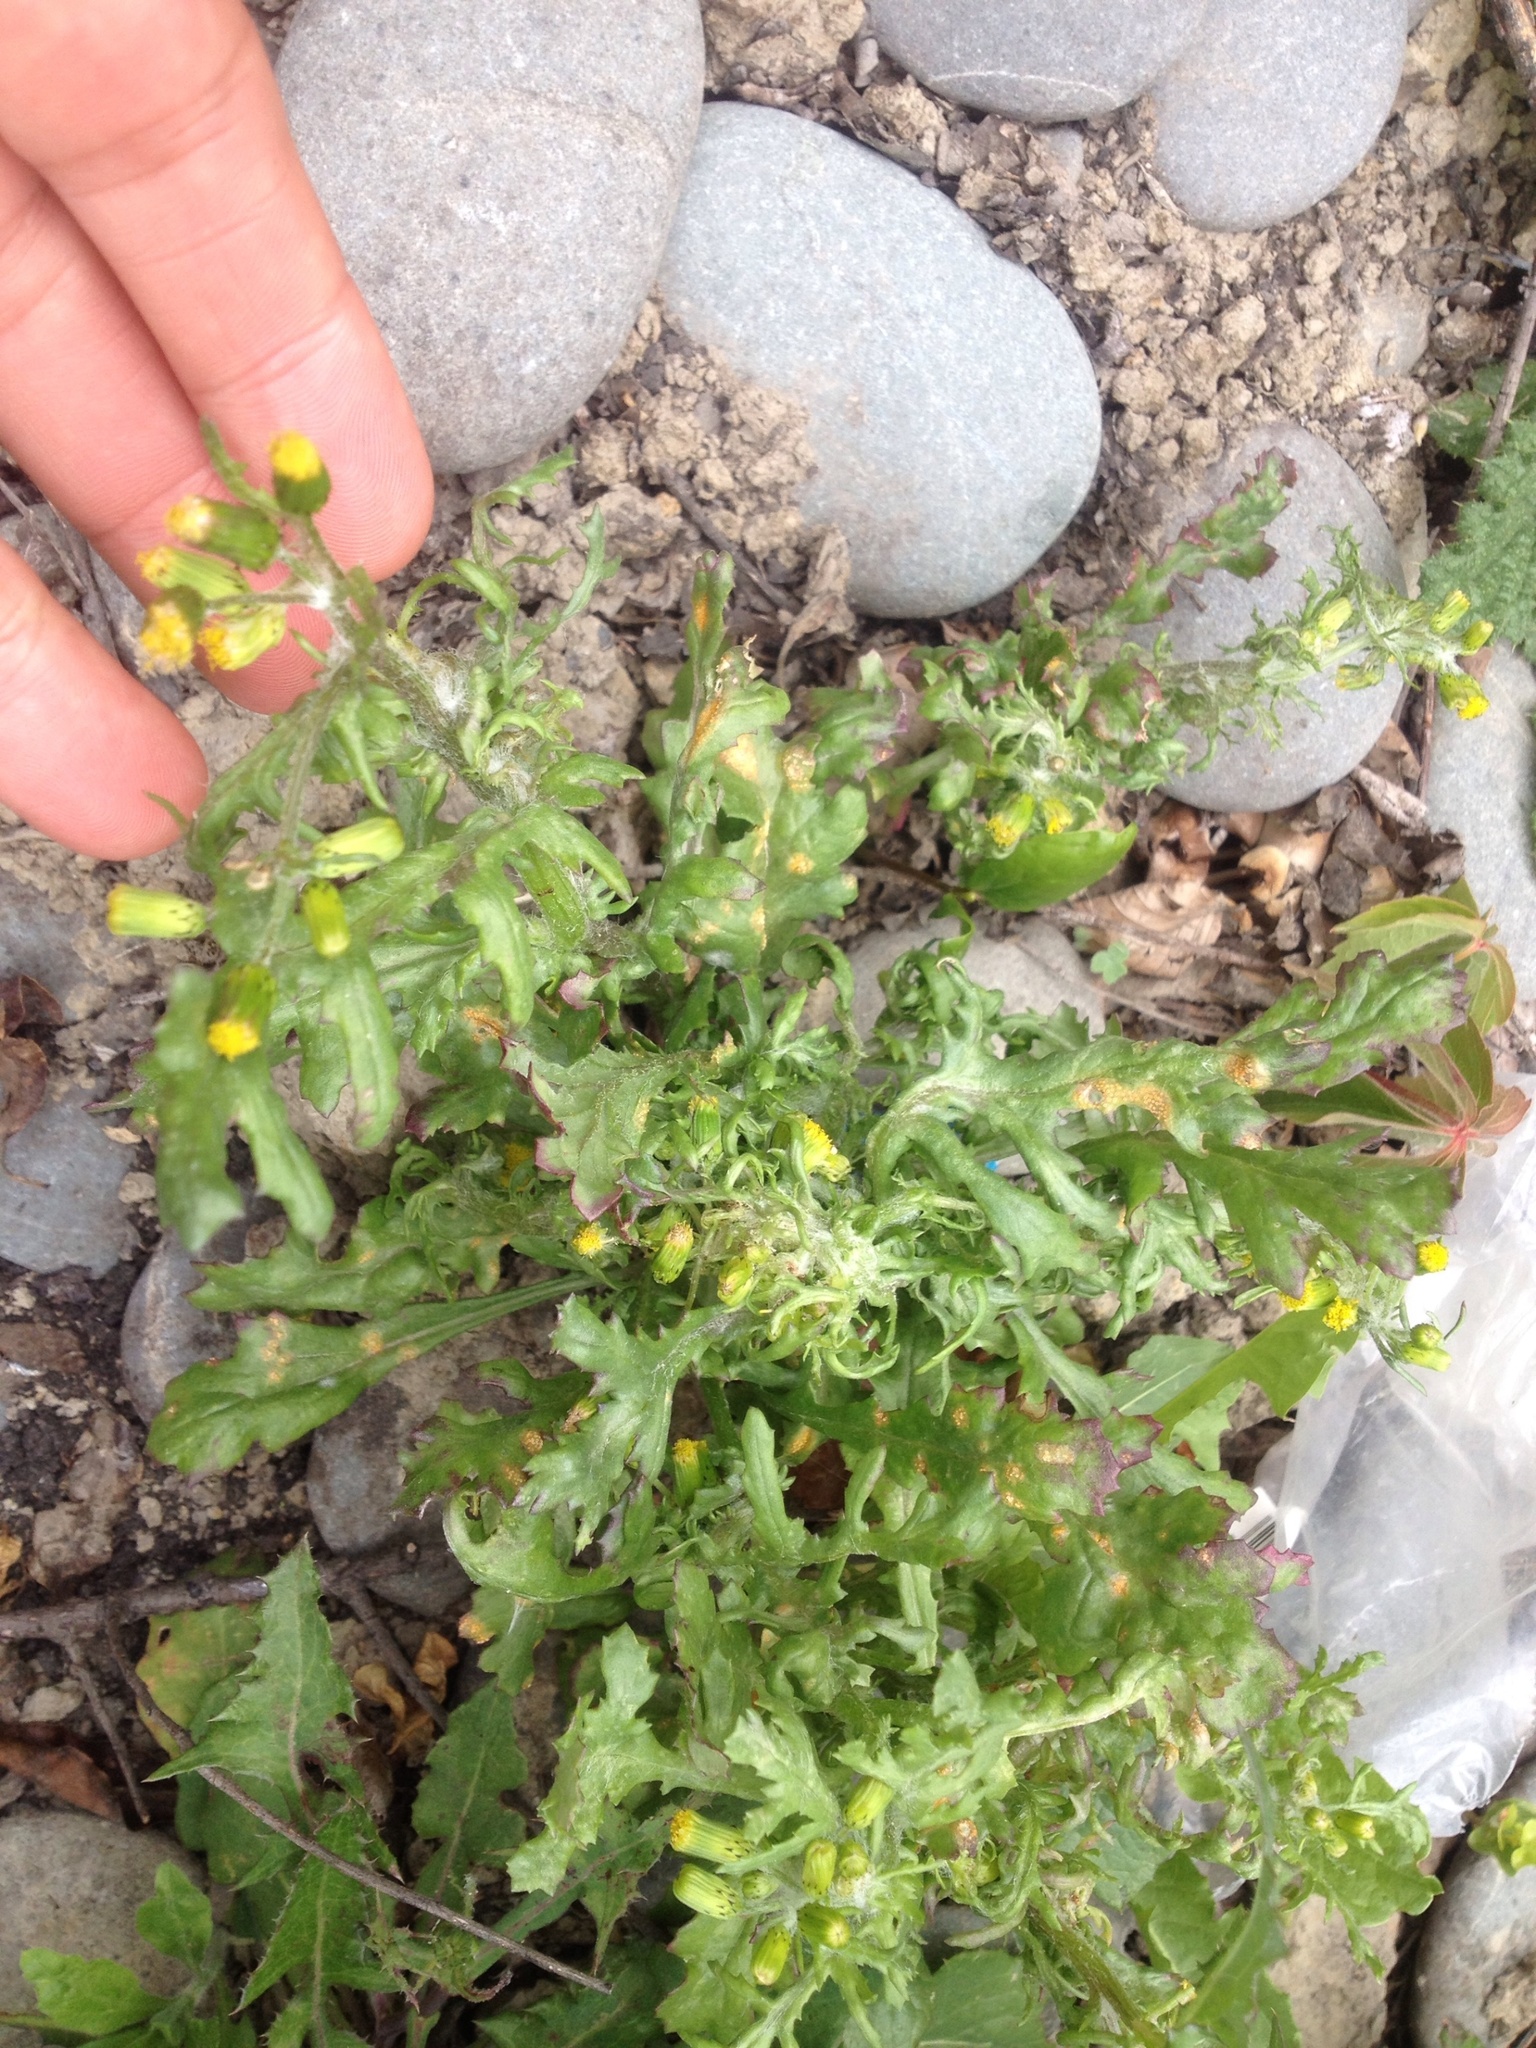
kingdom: Plantae
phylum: Tracheophyta
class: Magnoliopsida
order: Asterales
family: Asteraceae
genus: Senecio
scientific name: Senecio vulgaris
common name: Old-man-in-the-spring
